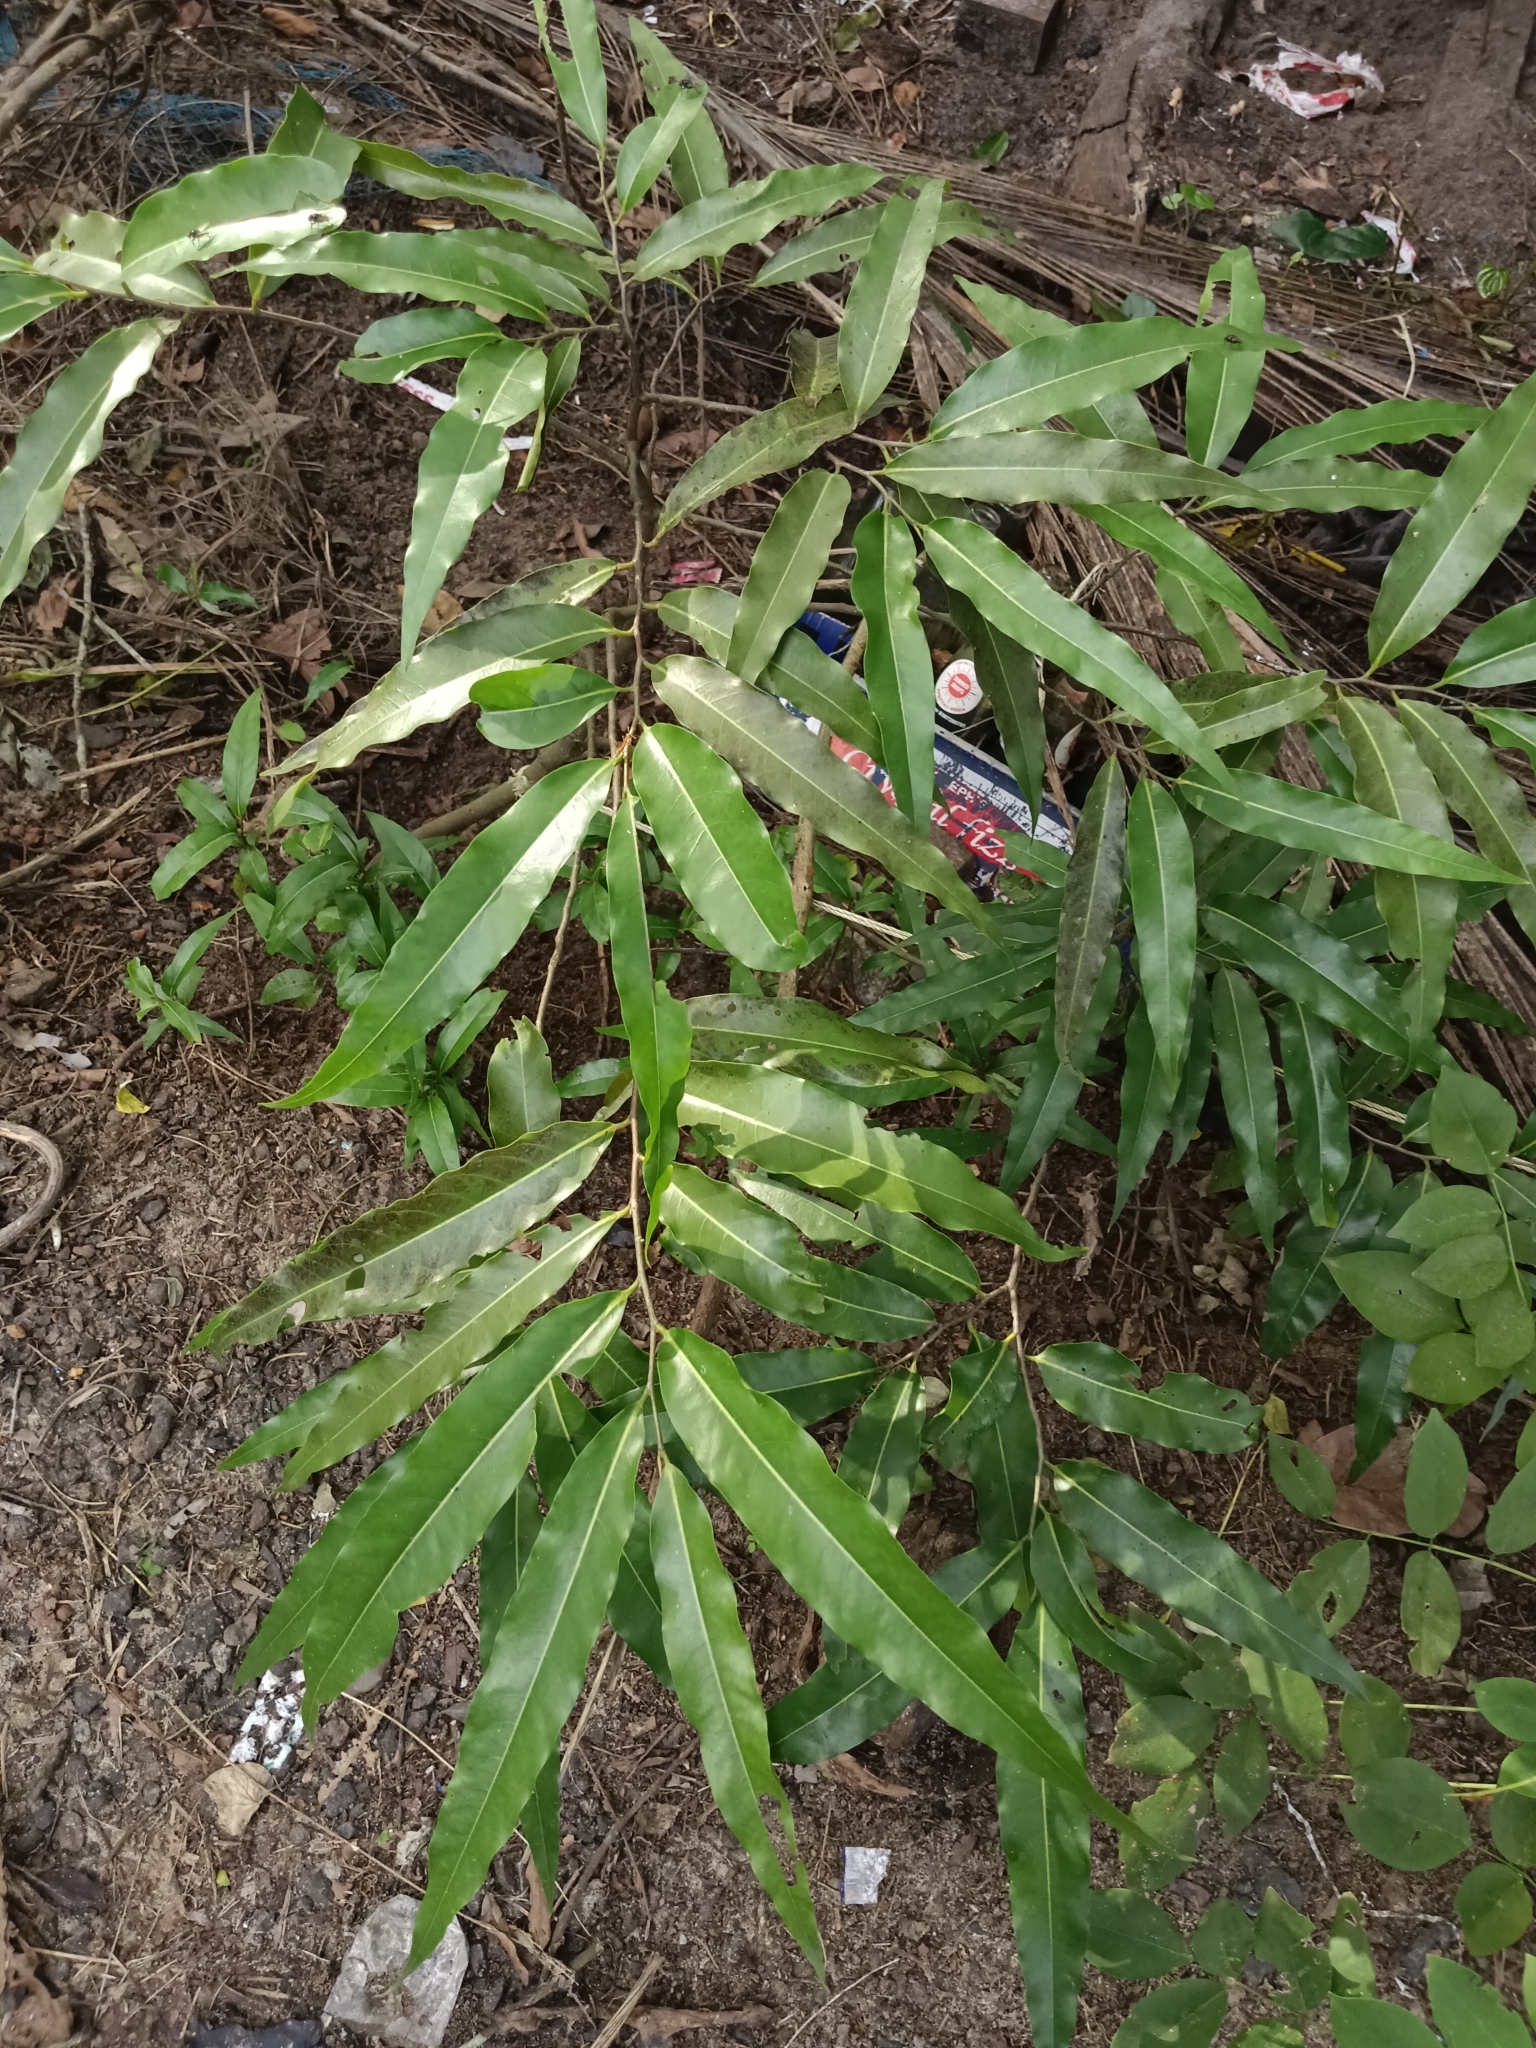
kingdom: Plantae
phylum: Tracheophyta
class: Magnoliopsida
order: Magnoliales
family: Annonaceae
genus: Polyalthia
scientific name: Polyalthia longifolia
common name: Cemetery-tree
